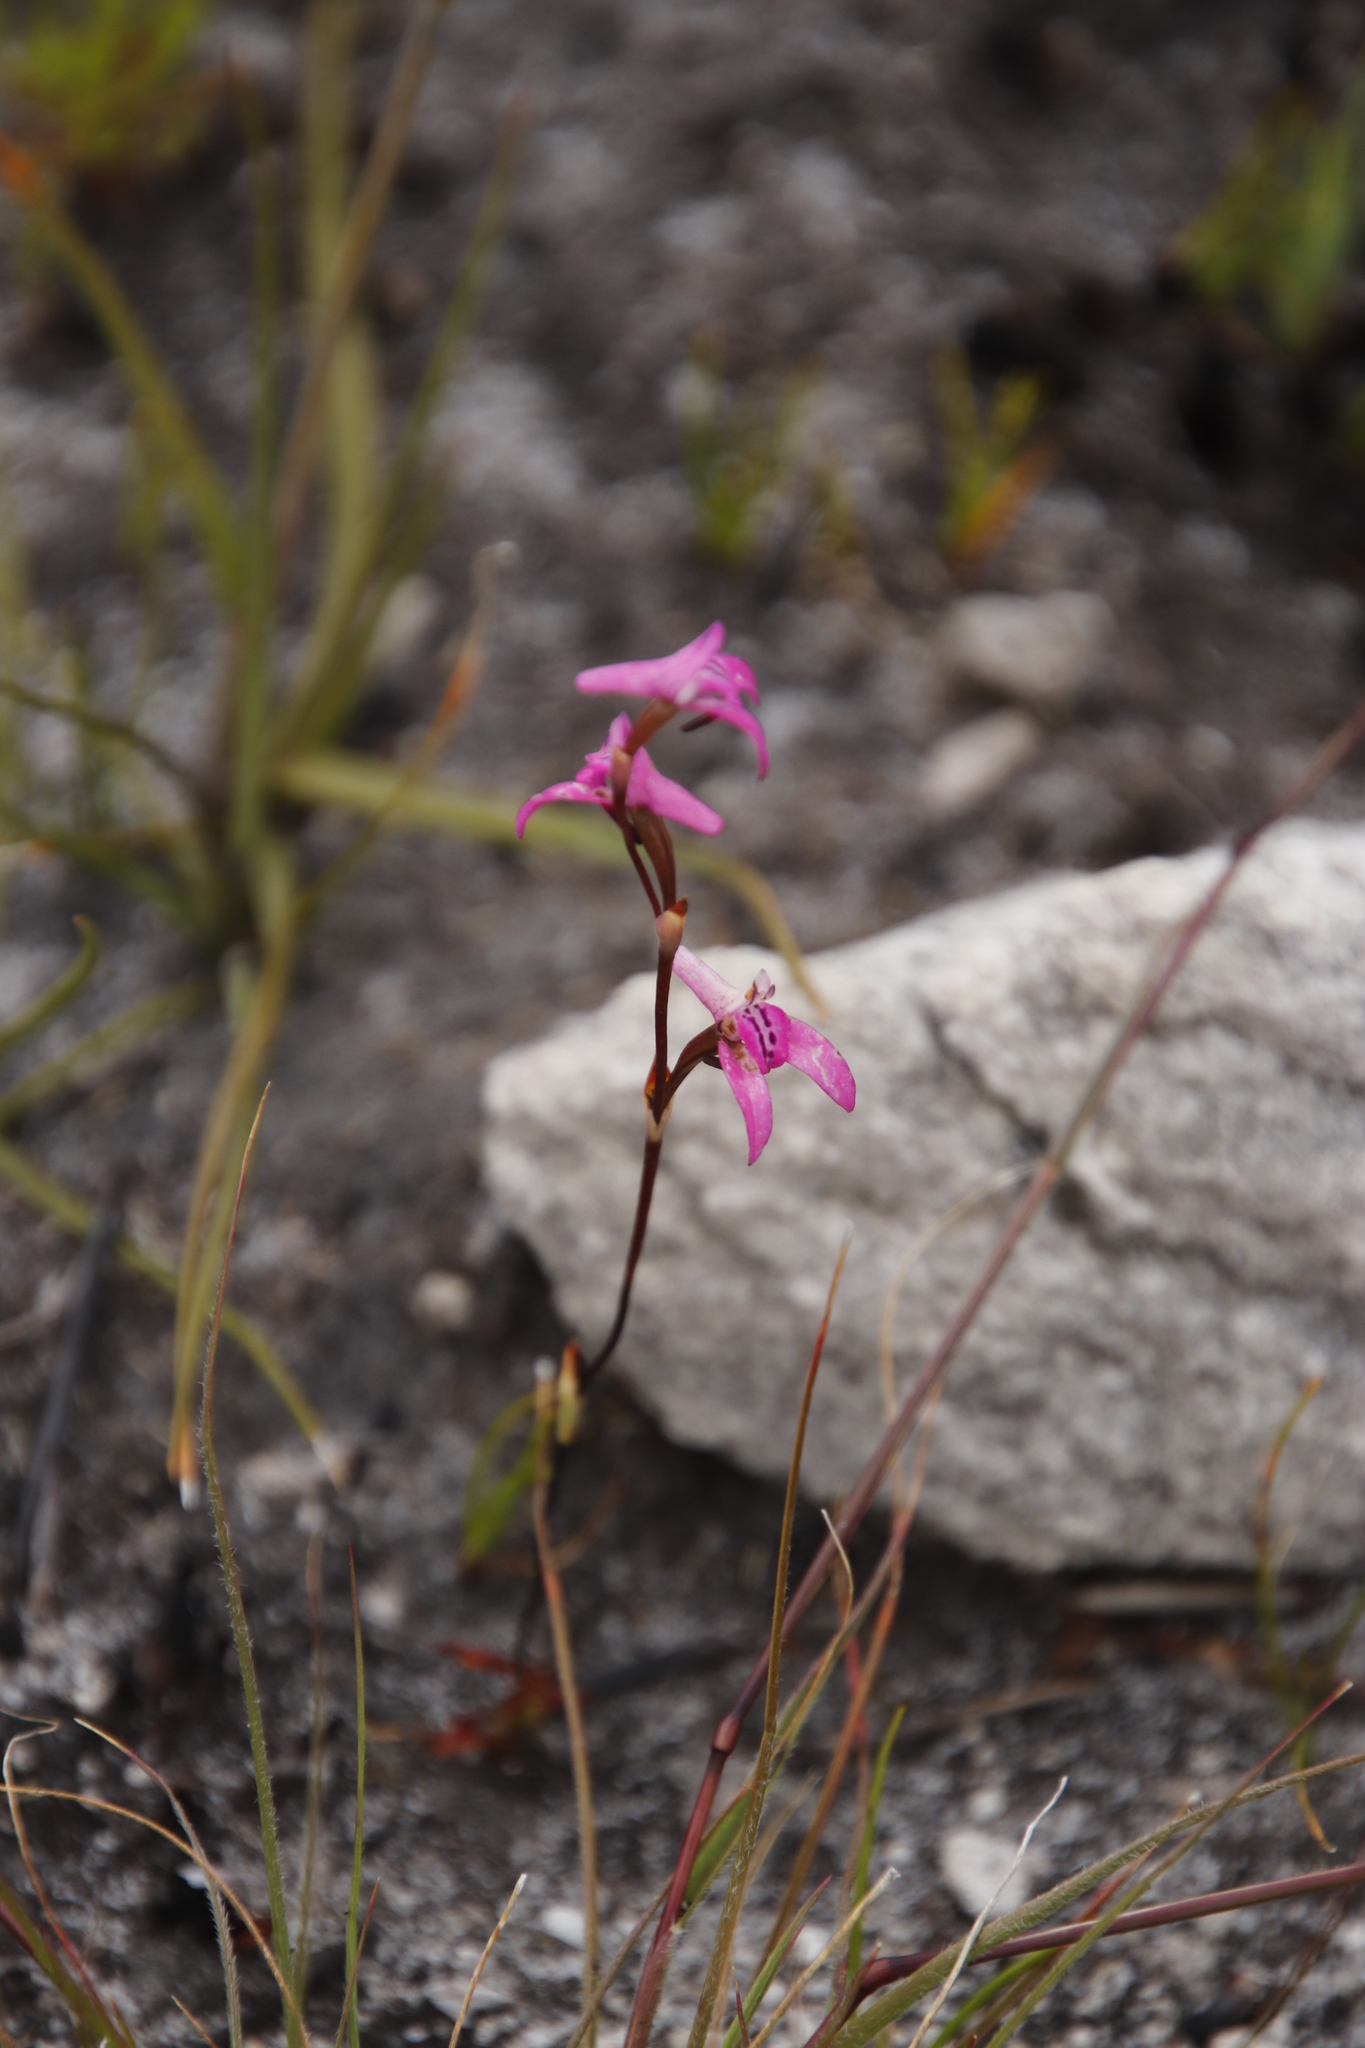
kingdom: Plantae
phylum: Tracheophyta
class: Liliopsida
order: Asparagales
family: Orchidaceae
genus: Disa
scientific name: Disa inflexa
